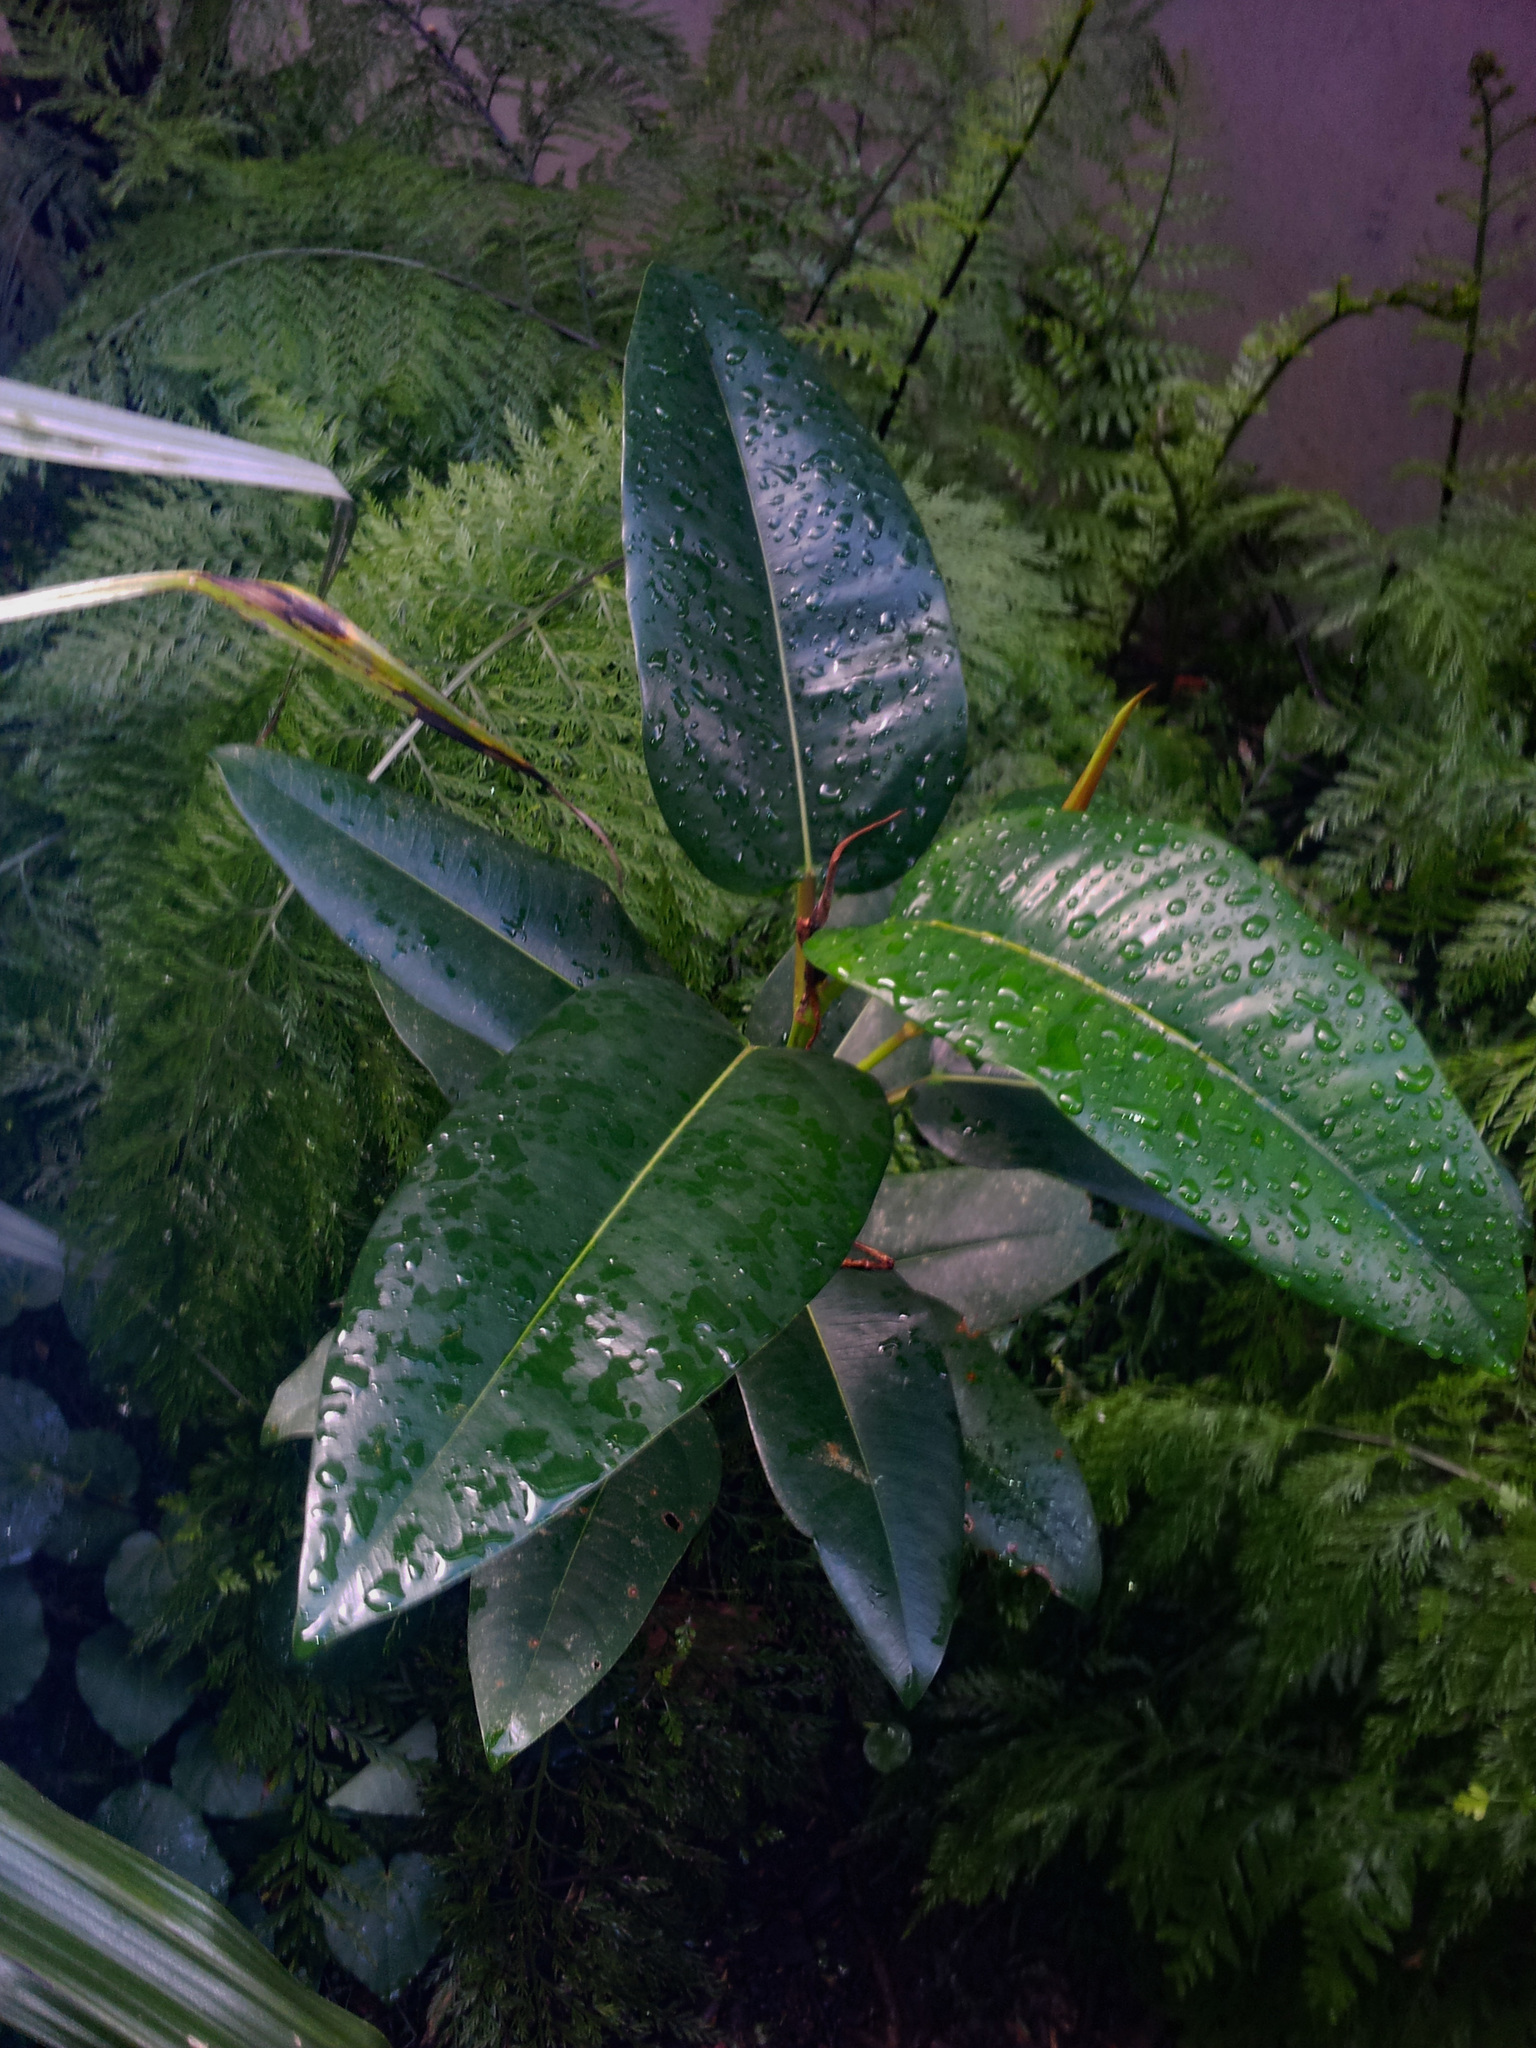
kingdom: Plantae
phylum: Tracheophyta
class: Magnoliopsida
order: Rosales
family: Moraceae
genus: Ficus
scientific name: Ficus macrophylla
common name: Moreton bay fig
